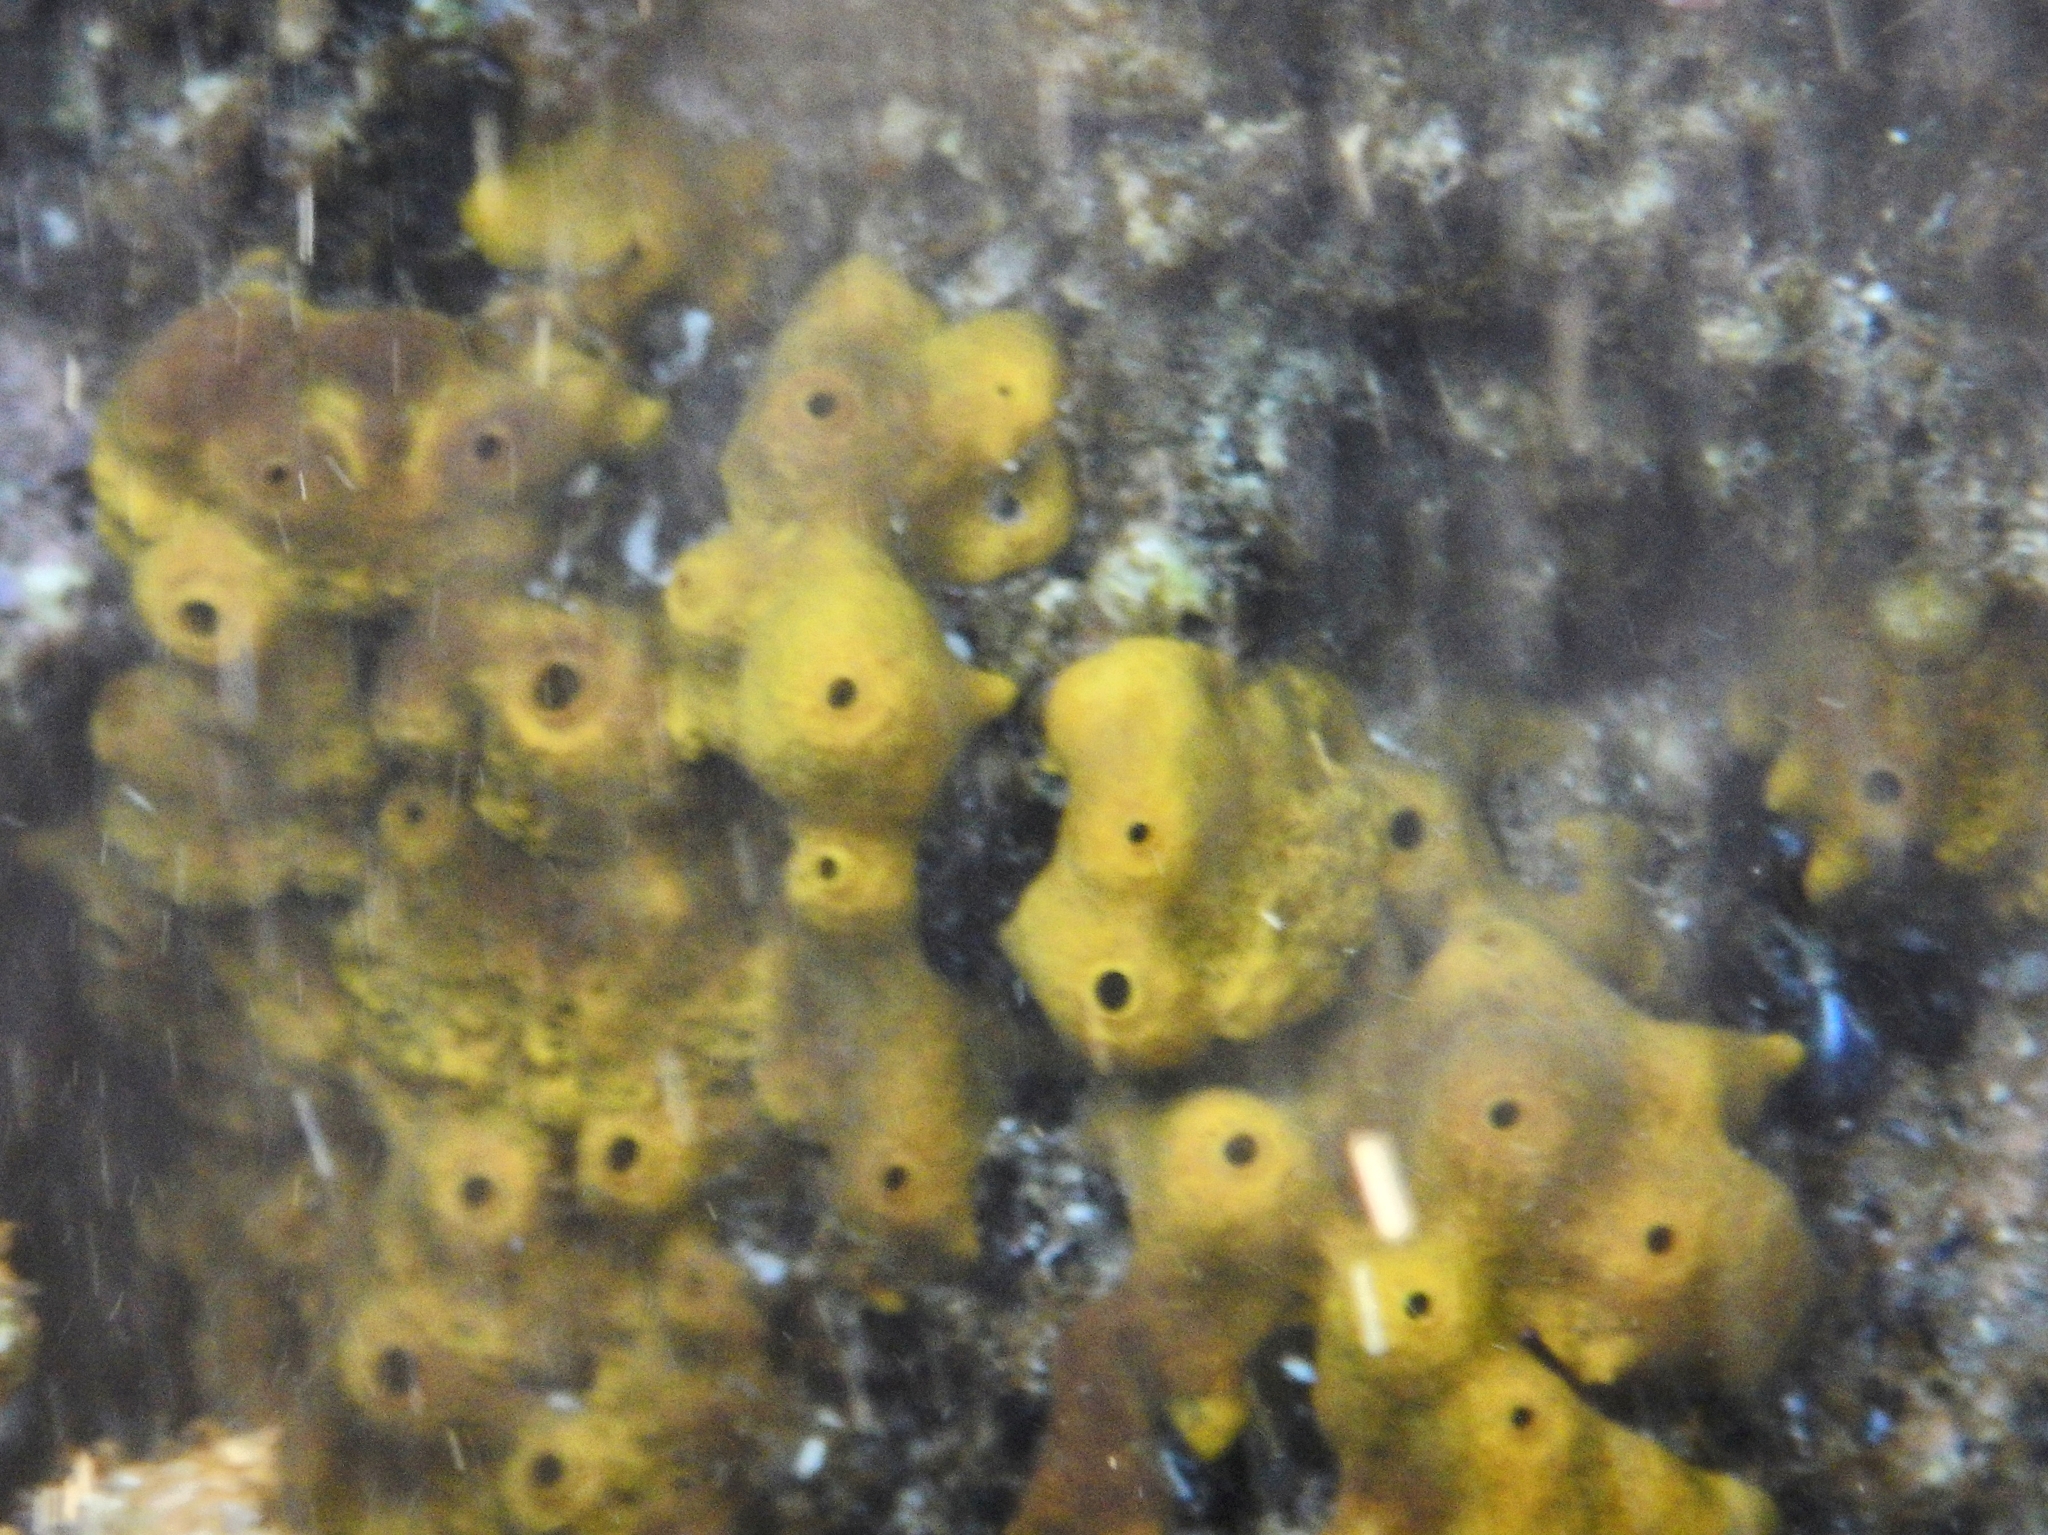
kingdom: Animalia
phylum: Porifera
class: Demospongiae
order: Verongiida
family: Aplysinidae
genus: Aplysina
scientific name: Aplysina aerophoba
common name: Aureate sponge
